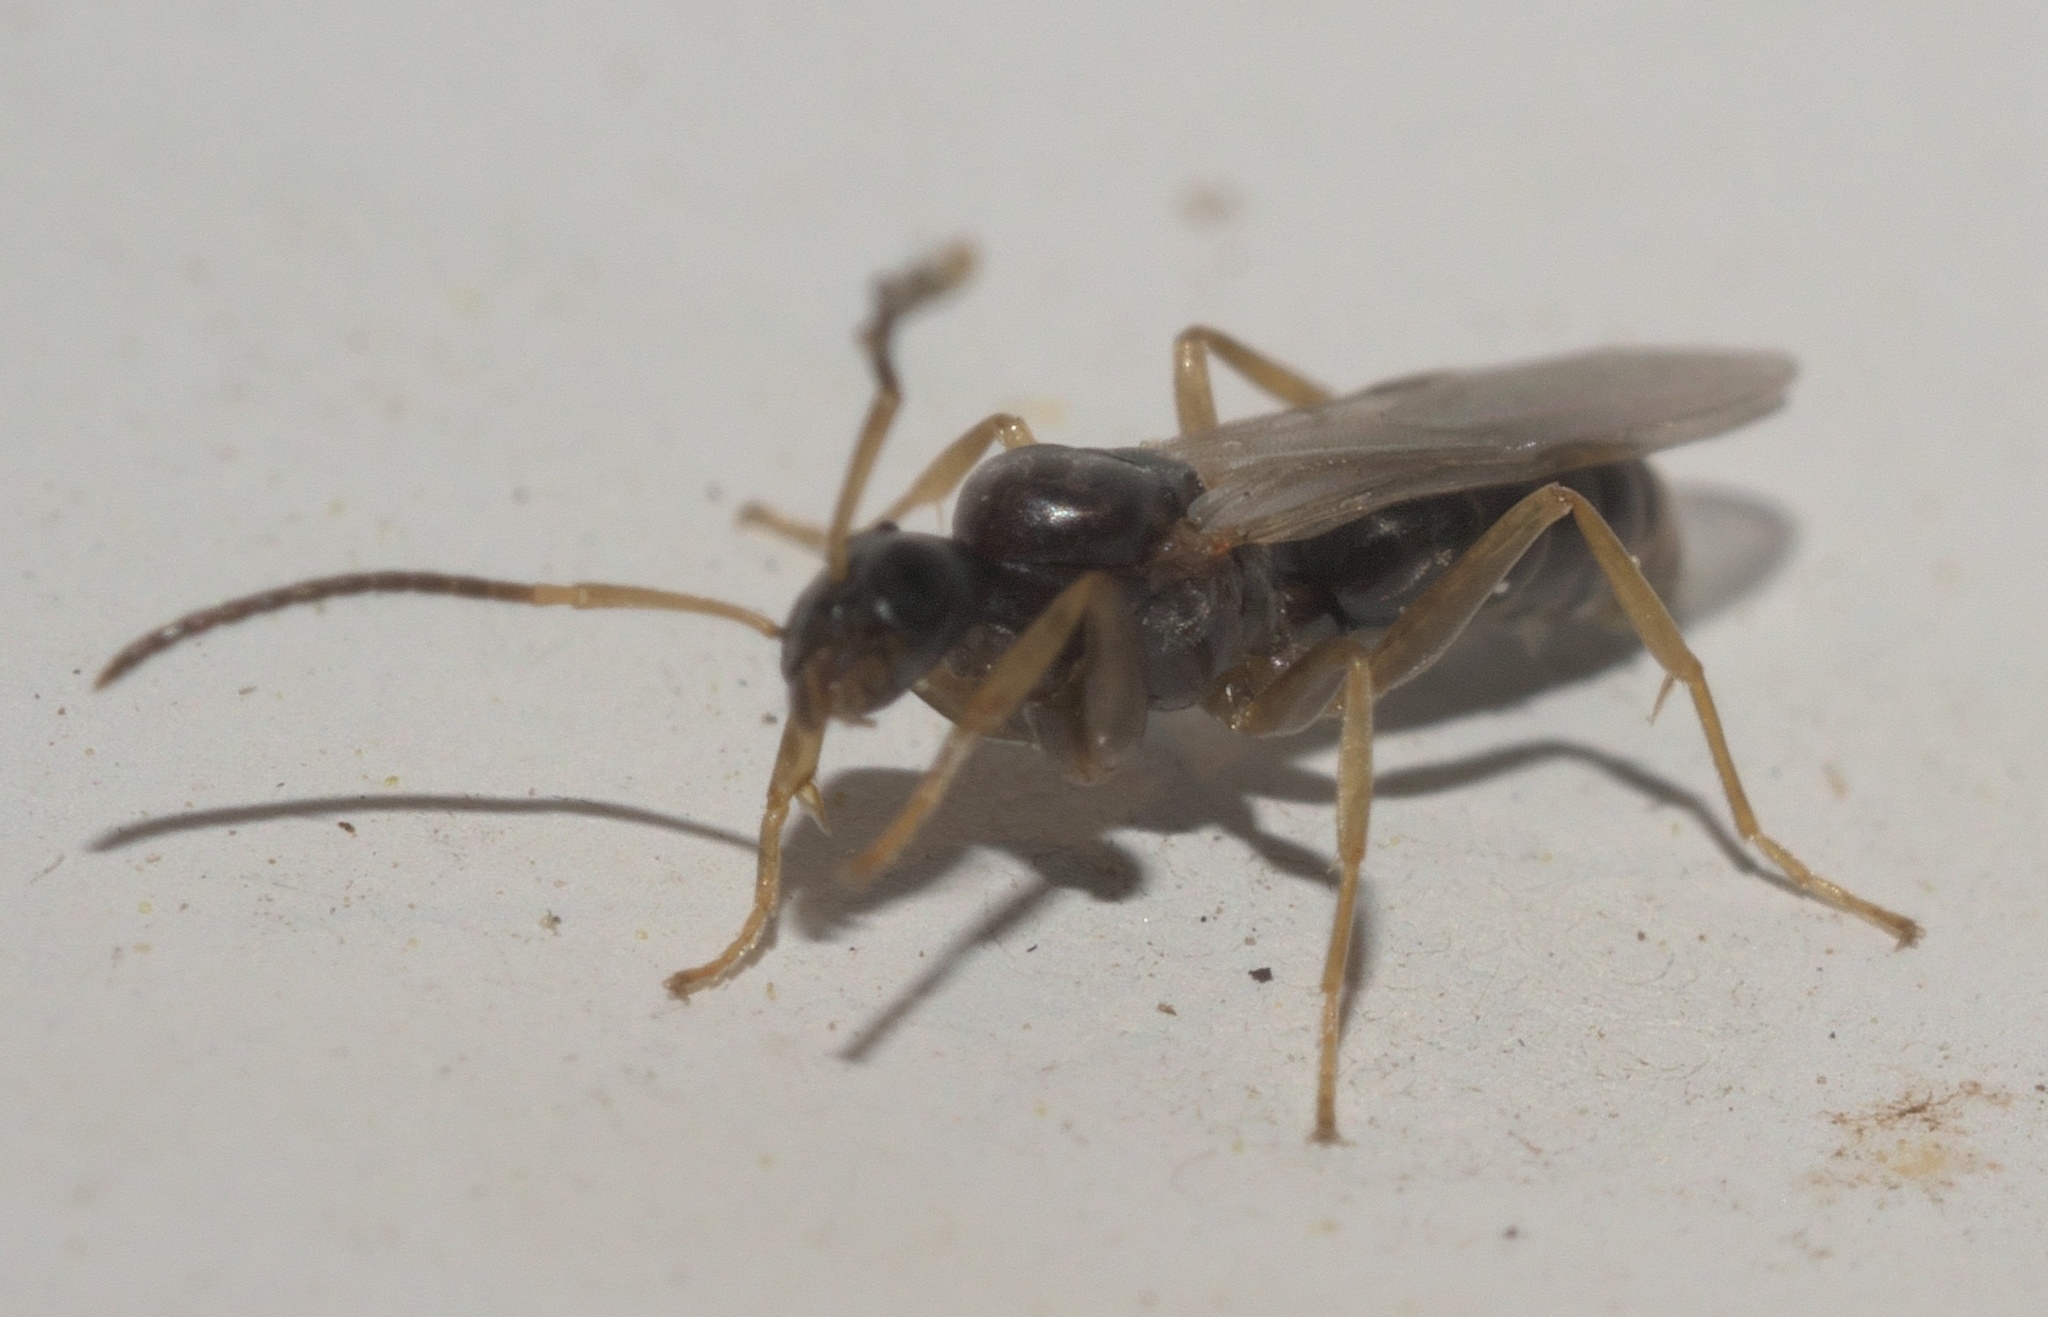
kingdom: Animalia
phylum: Arthropoda
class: Insecta
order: Hymenoptera
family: Formicidae
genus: Tapinoma
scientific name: Tapinoma sessile
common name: Odorous house ant
